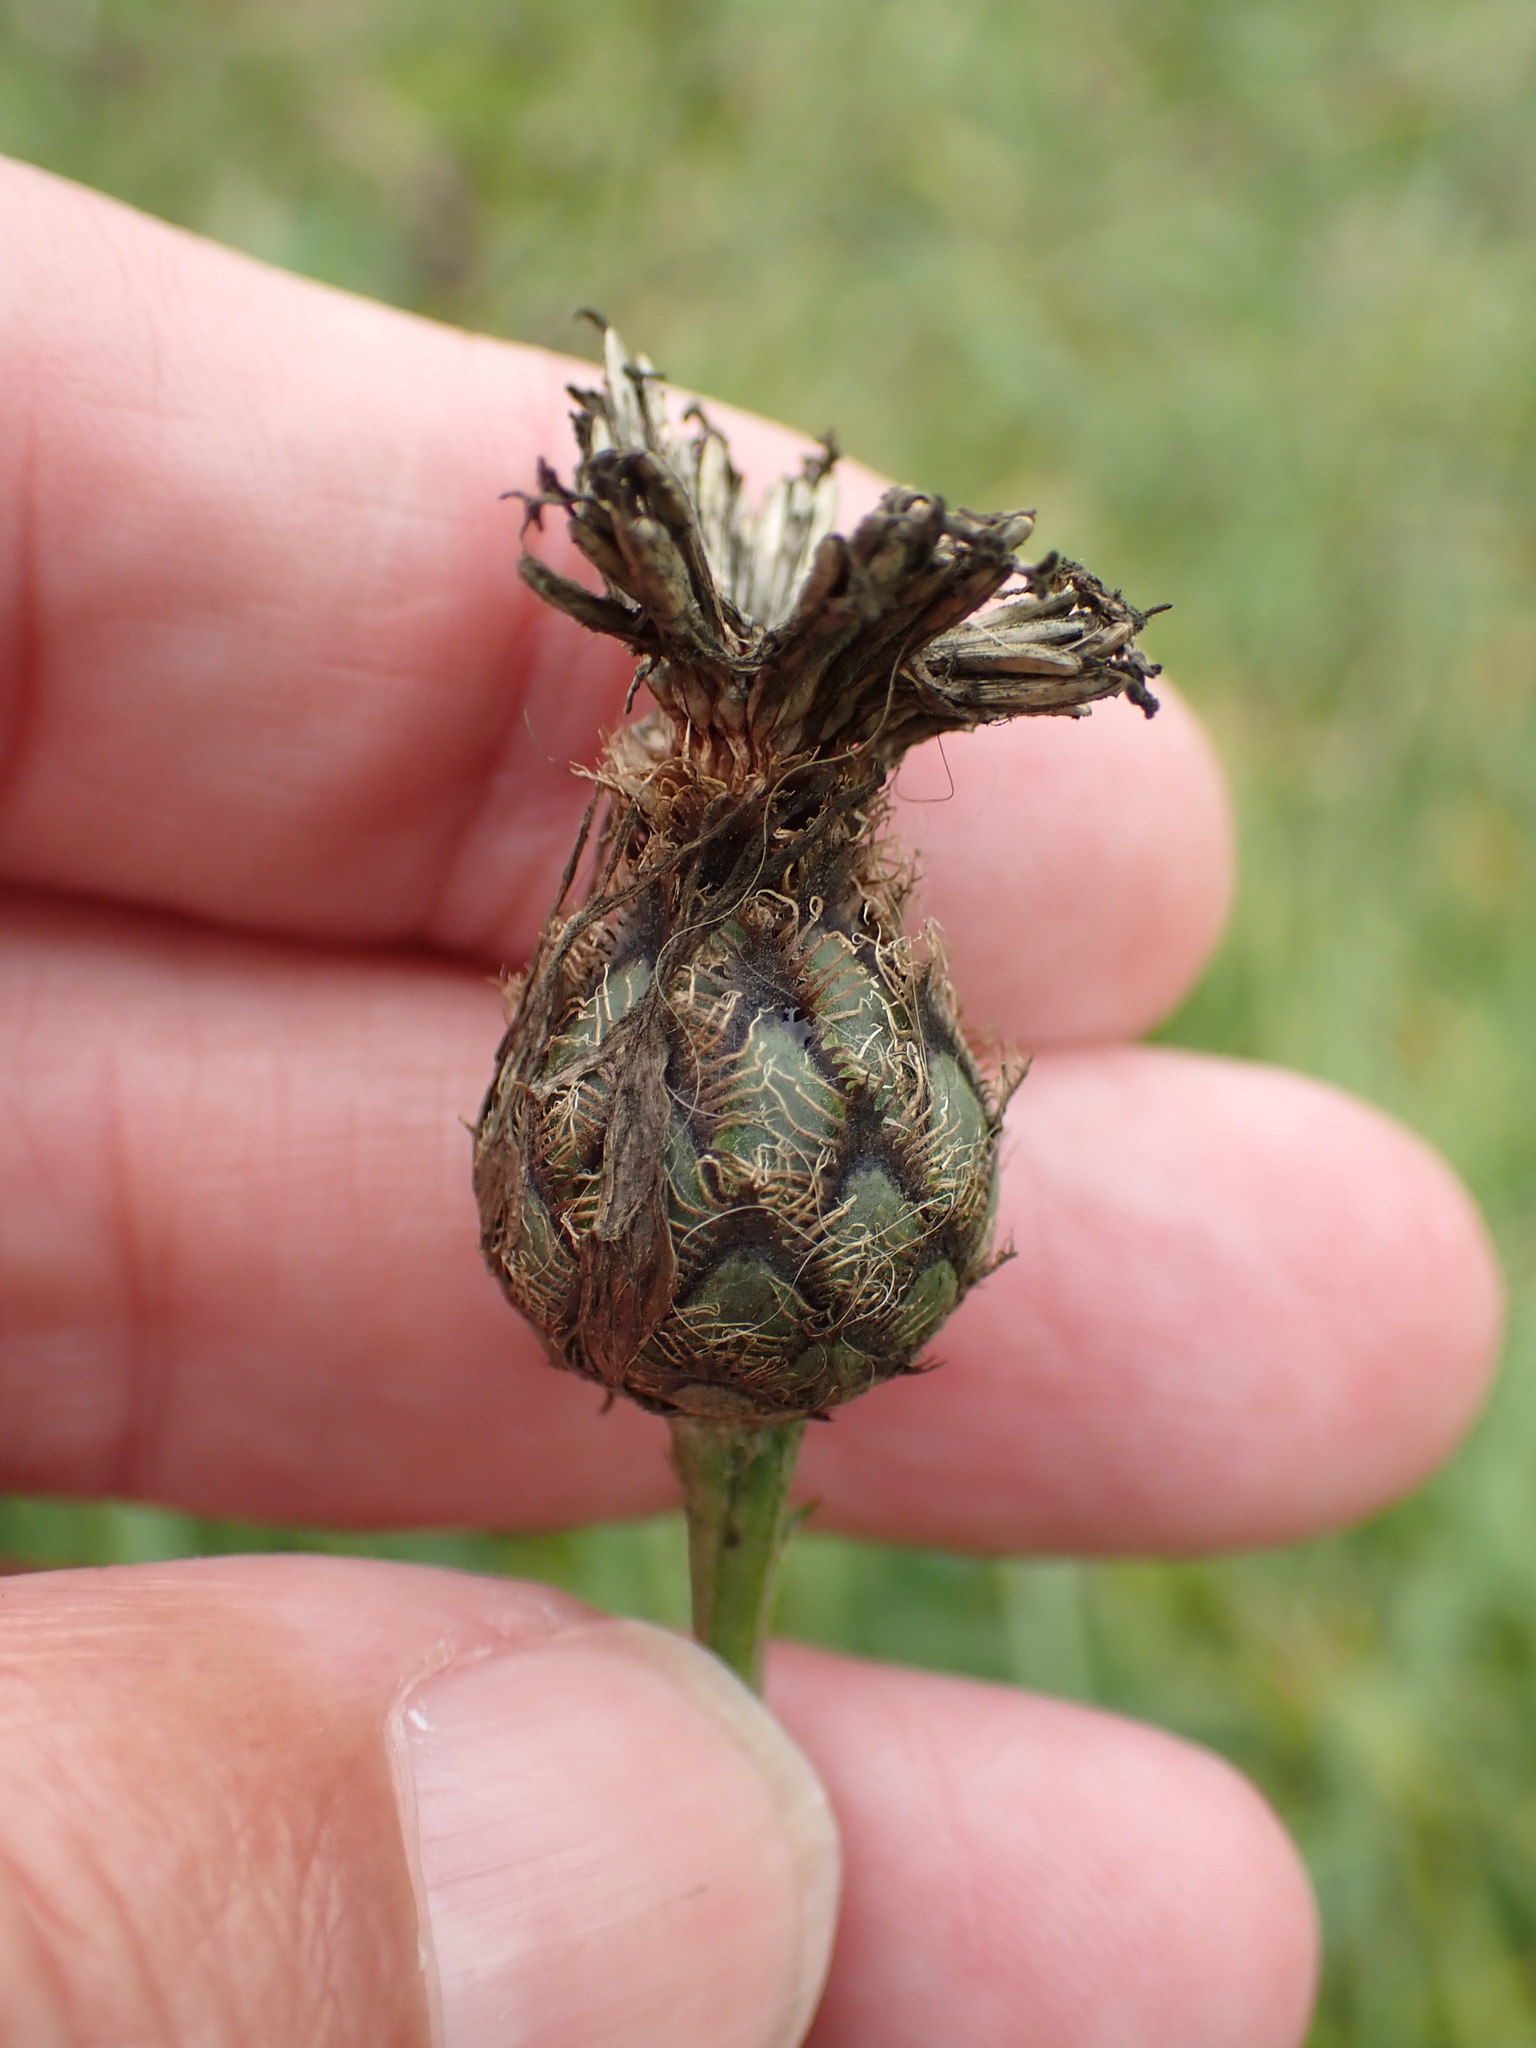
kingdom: Plantae
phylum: Tracheophyta
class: Magnoliopsida
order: Asterales
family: Asteraceae
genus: Centaurea
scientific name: Centaurea scabiosa
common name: Greater knapweed
